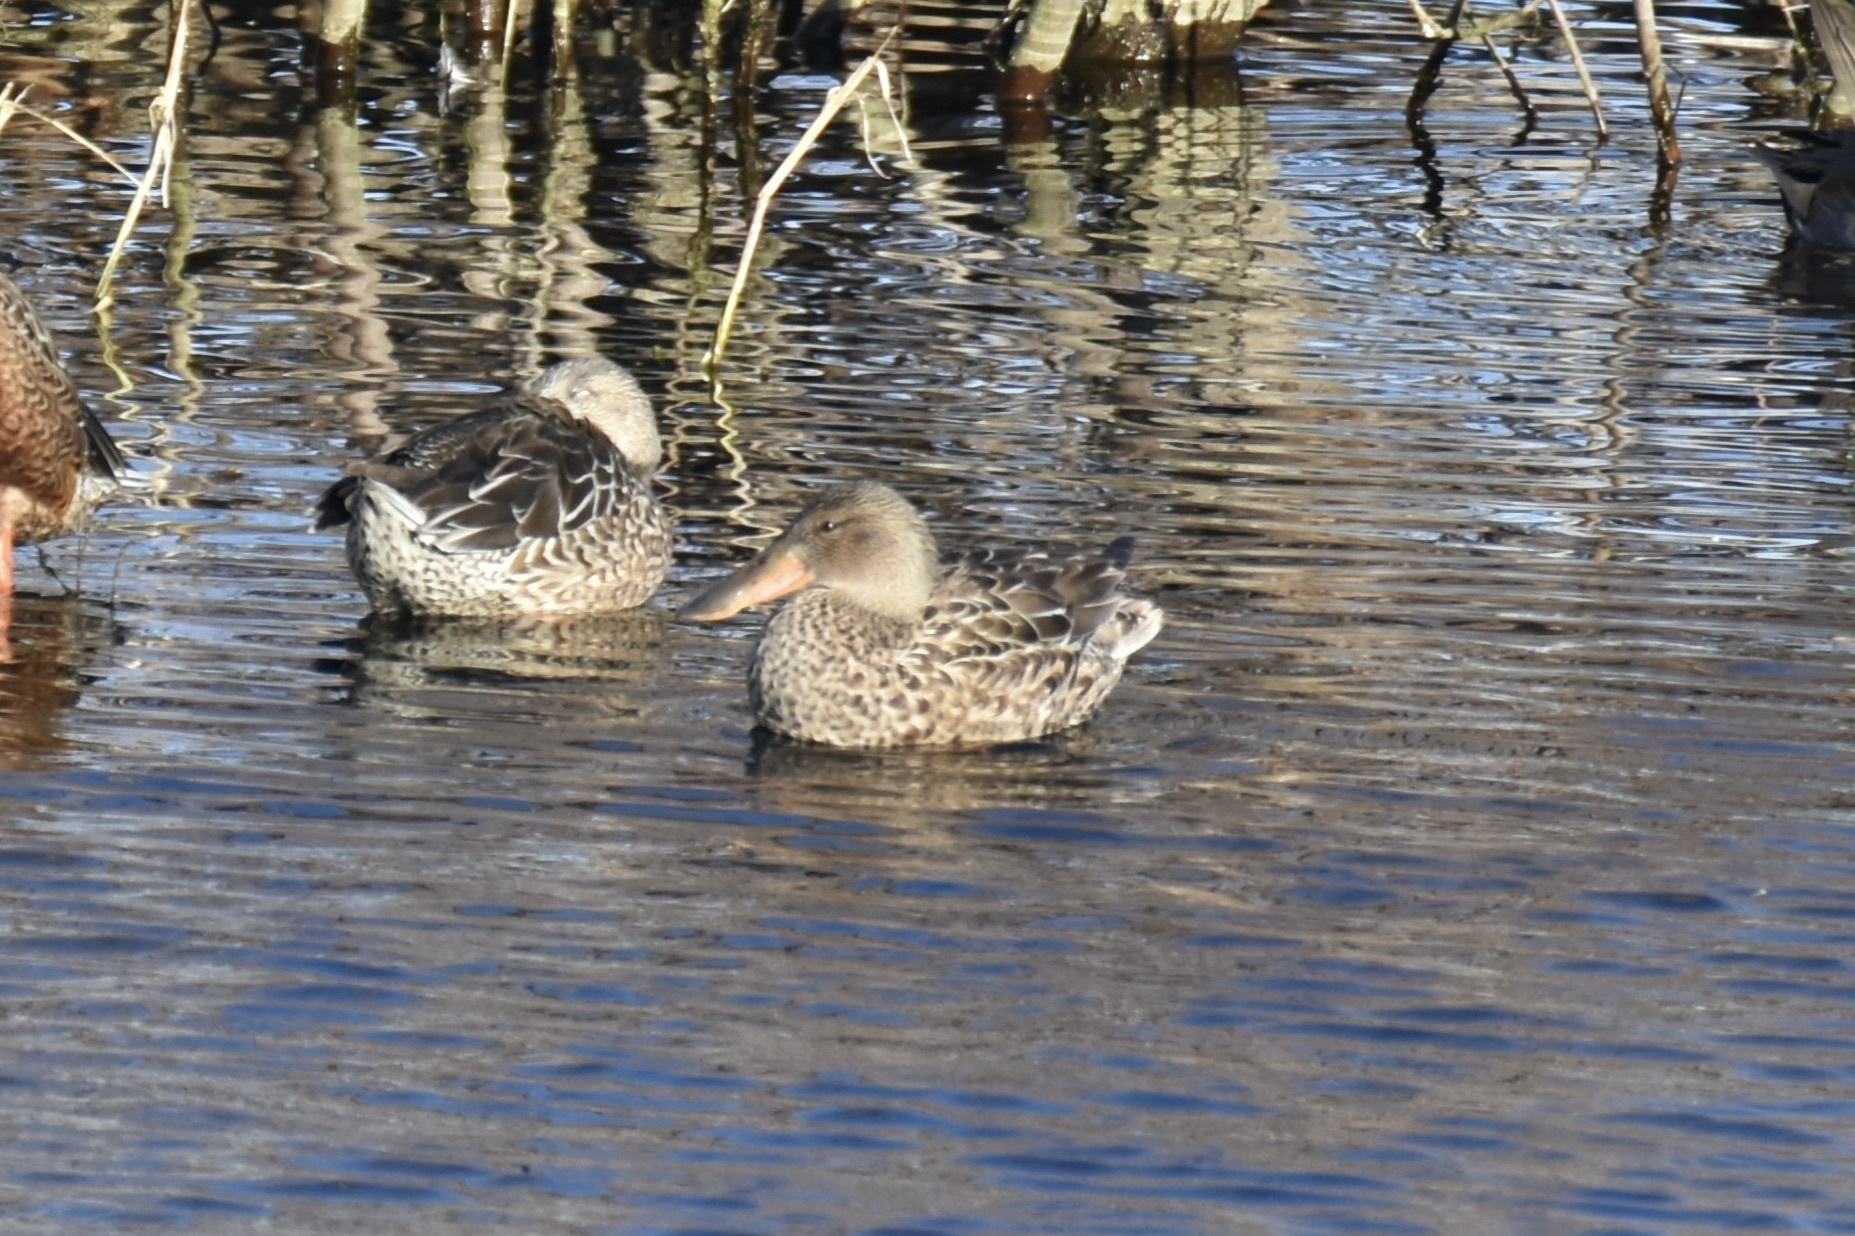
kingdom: Animalia
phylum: Chordata
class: Aves
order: Anseriformes
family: Anatidae
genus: Spatula
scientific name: Spatula clypeata
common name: Northern shoveler
